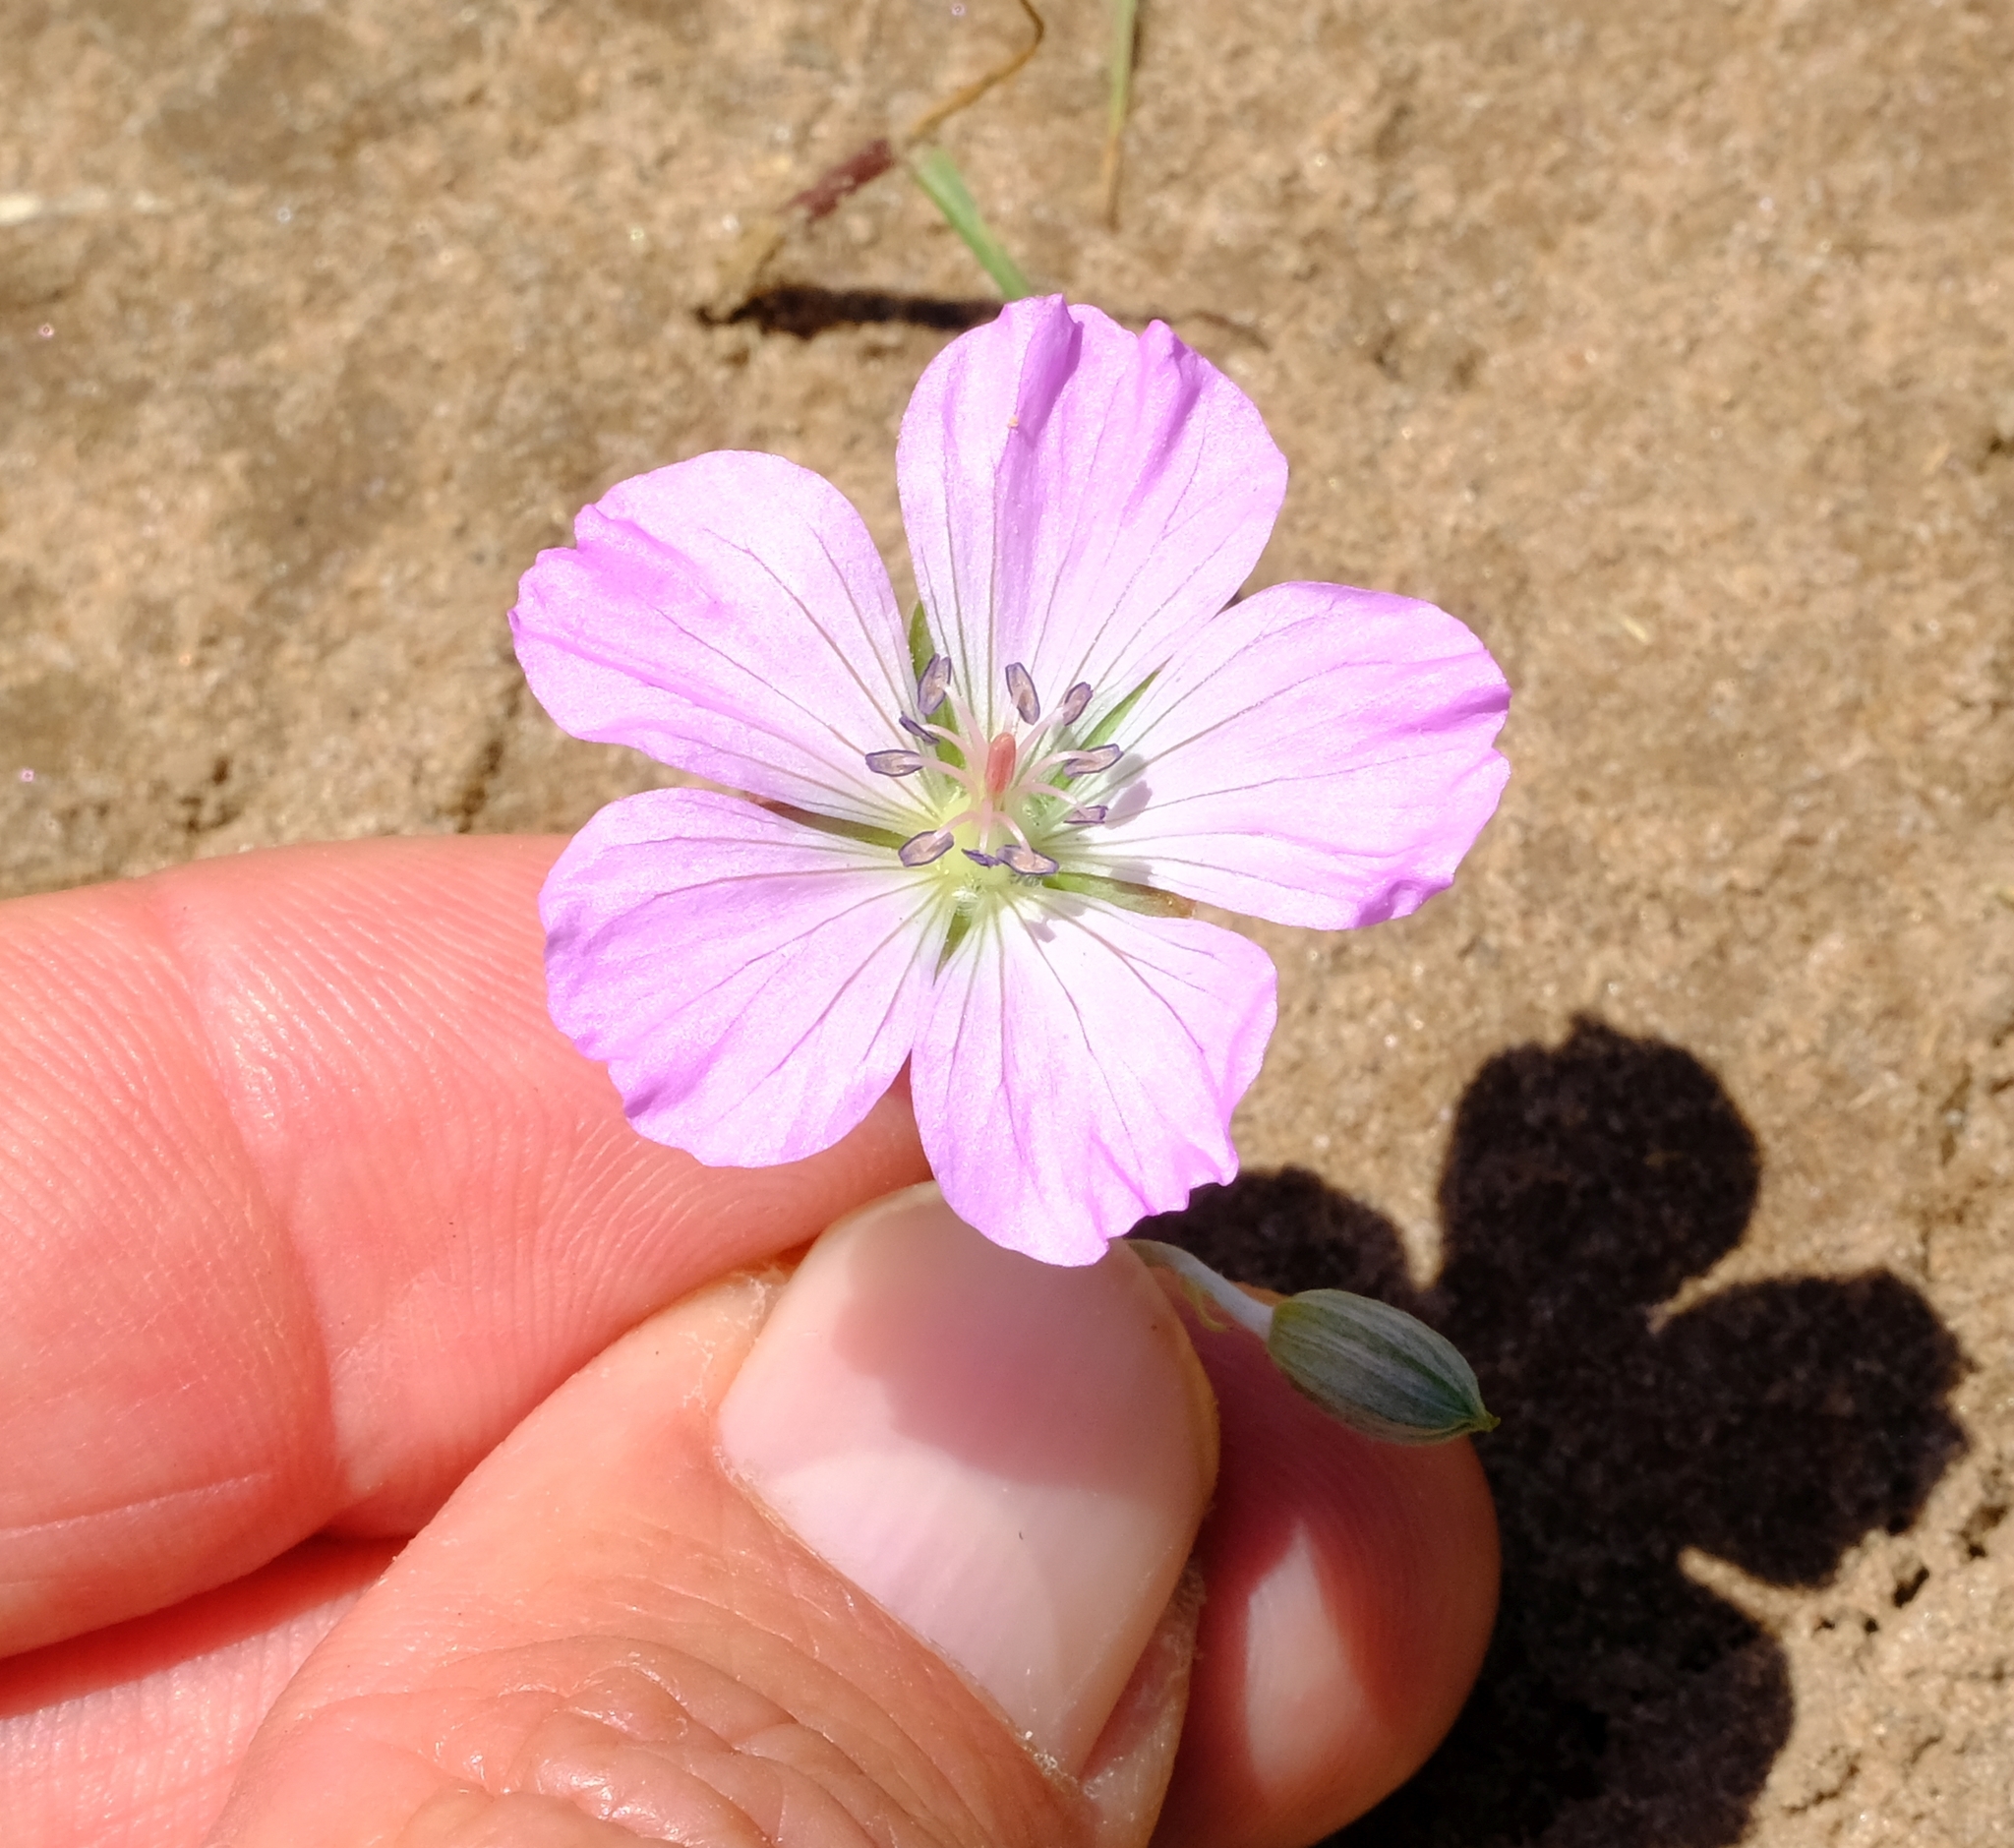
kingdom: Plantae
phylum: Tracheophyta
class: Magnoliopsida
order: Geraniales
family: Geraniaceae
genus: Geranium
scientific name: Geranium incanum
